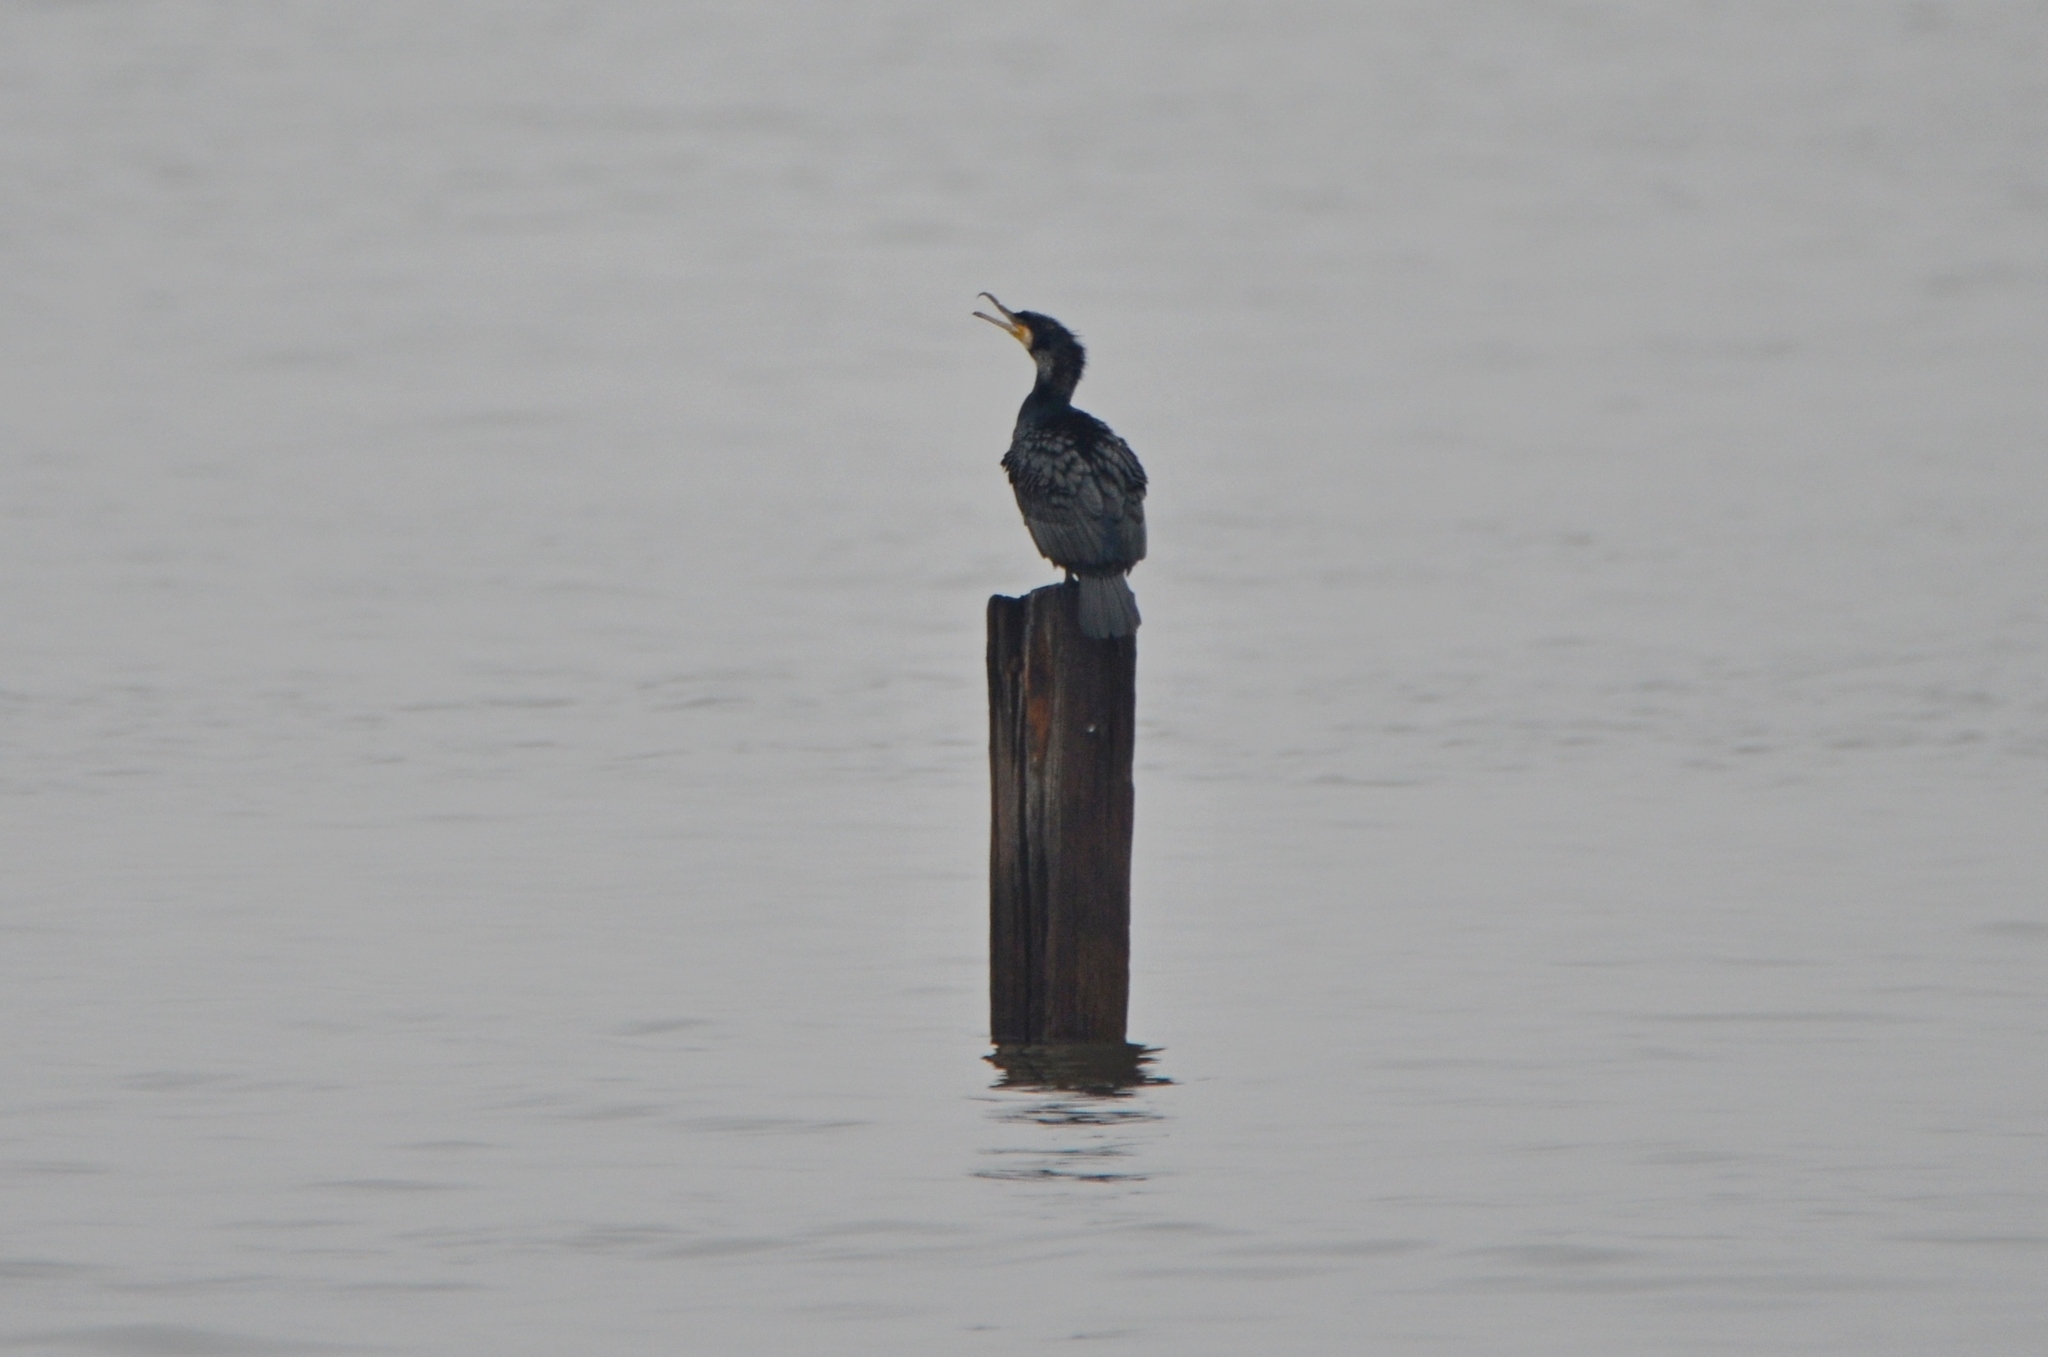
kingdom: Animalia
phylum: Chordata
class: Aves
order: Suliformes
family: Phalacrocoracidae
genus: Phalacrocorax
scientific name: Phalacrocorax carbo
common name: Great cormorant
